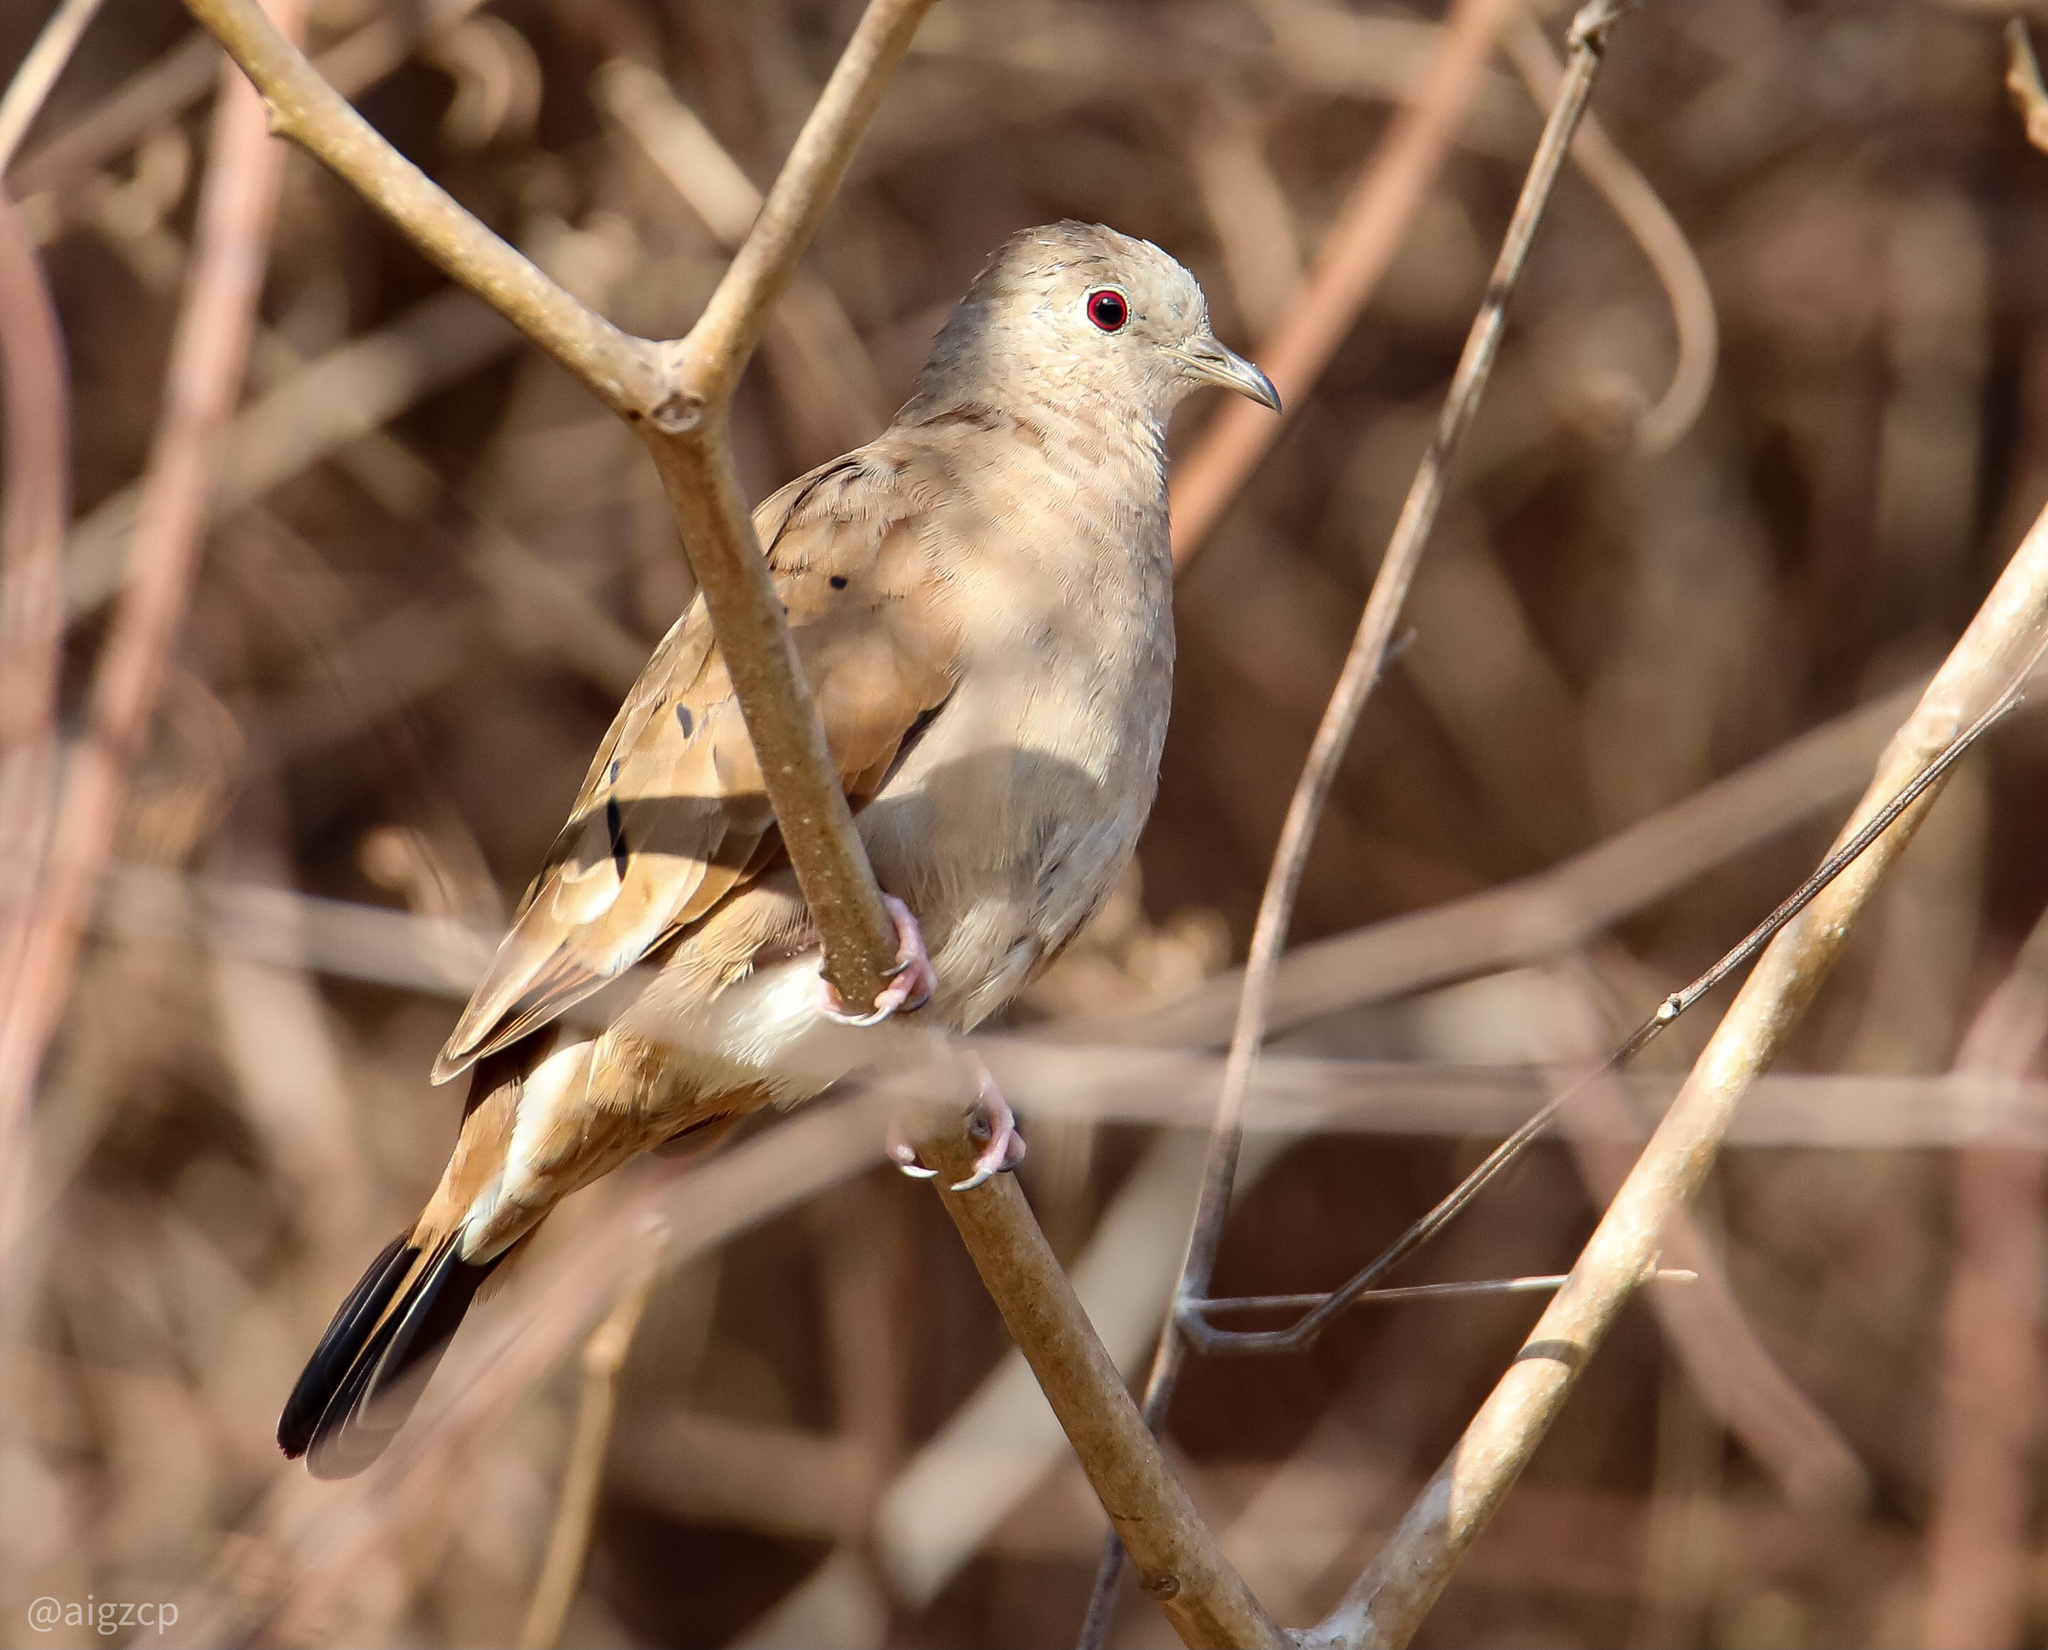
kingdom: Animalia
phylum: Chordata
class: Aves
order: Columbiformes
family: Columbidae
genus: Columbina
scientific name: Columbina talpacoti
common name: Ruddy ground dove
